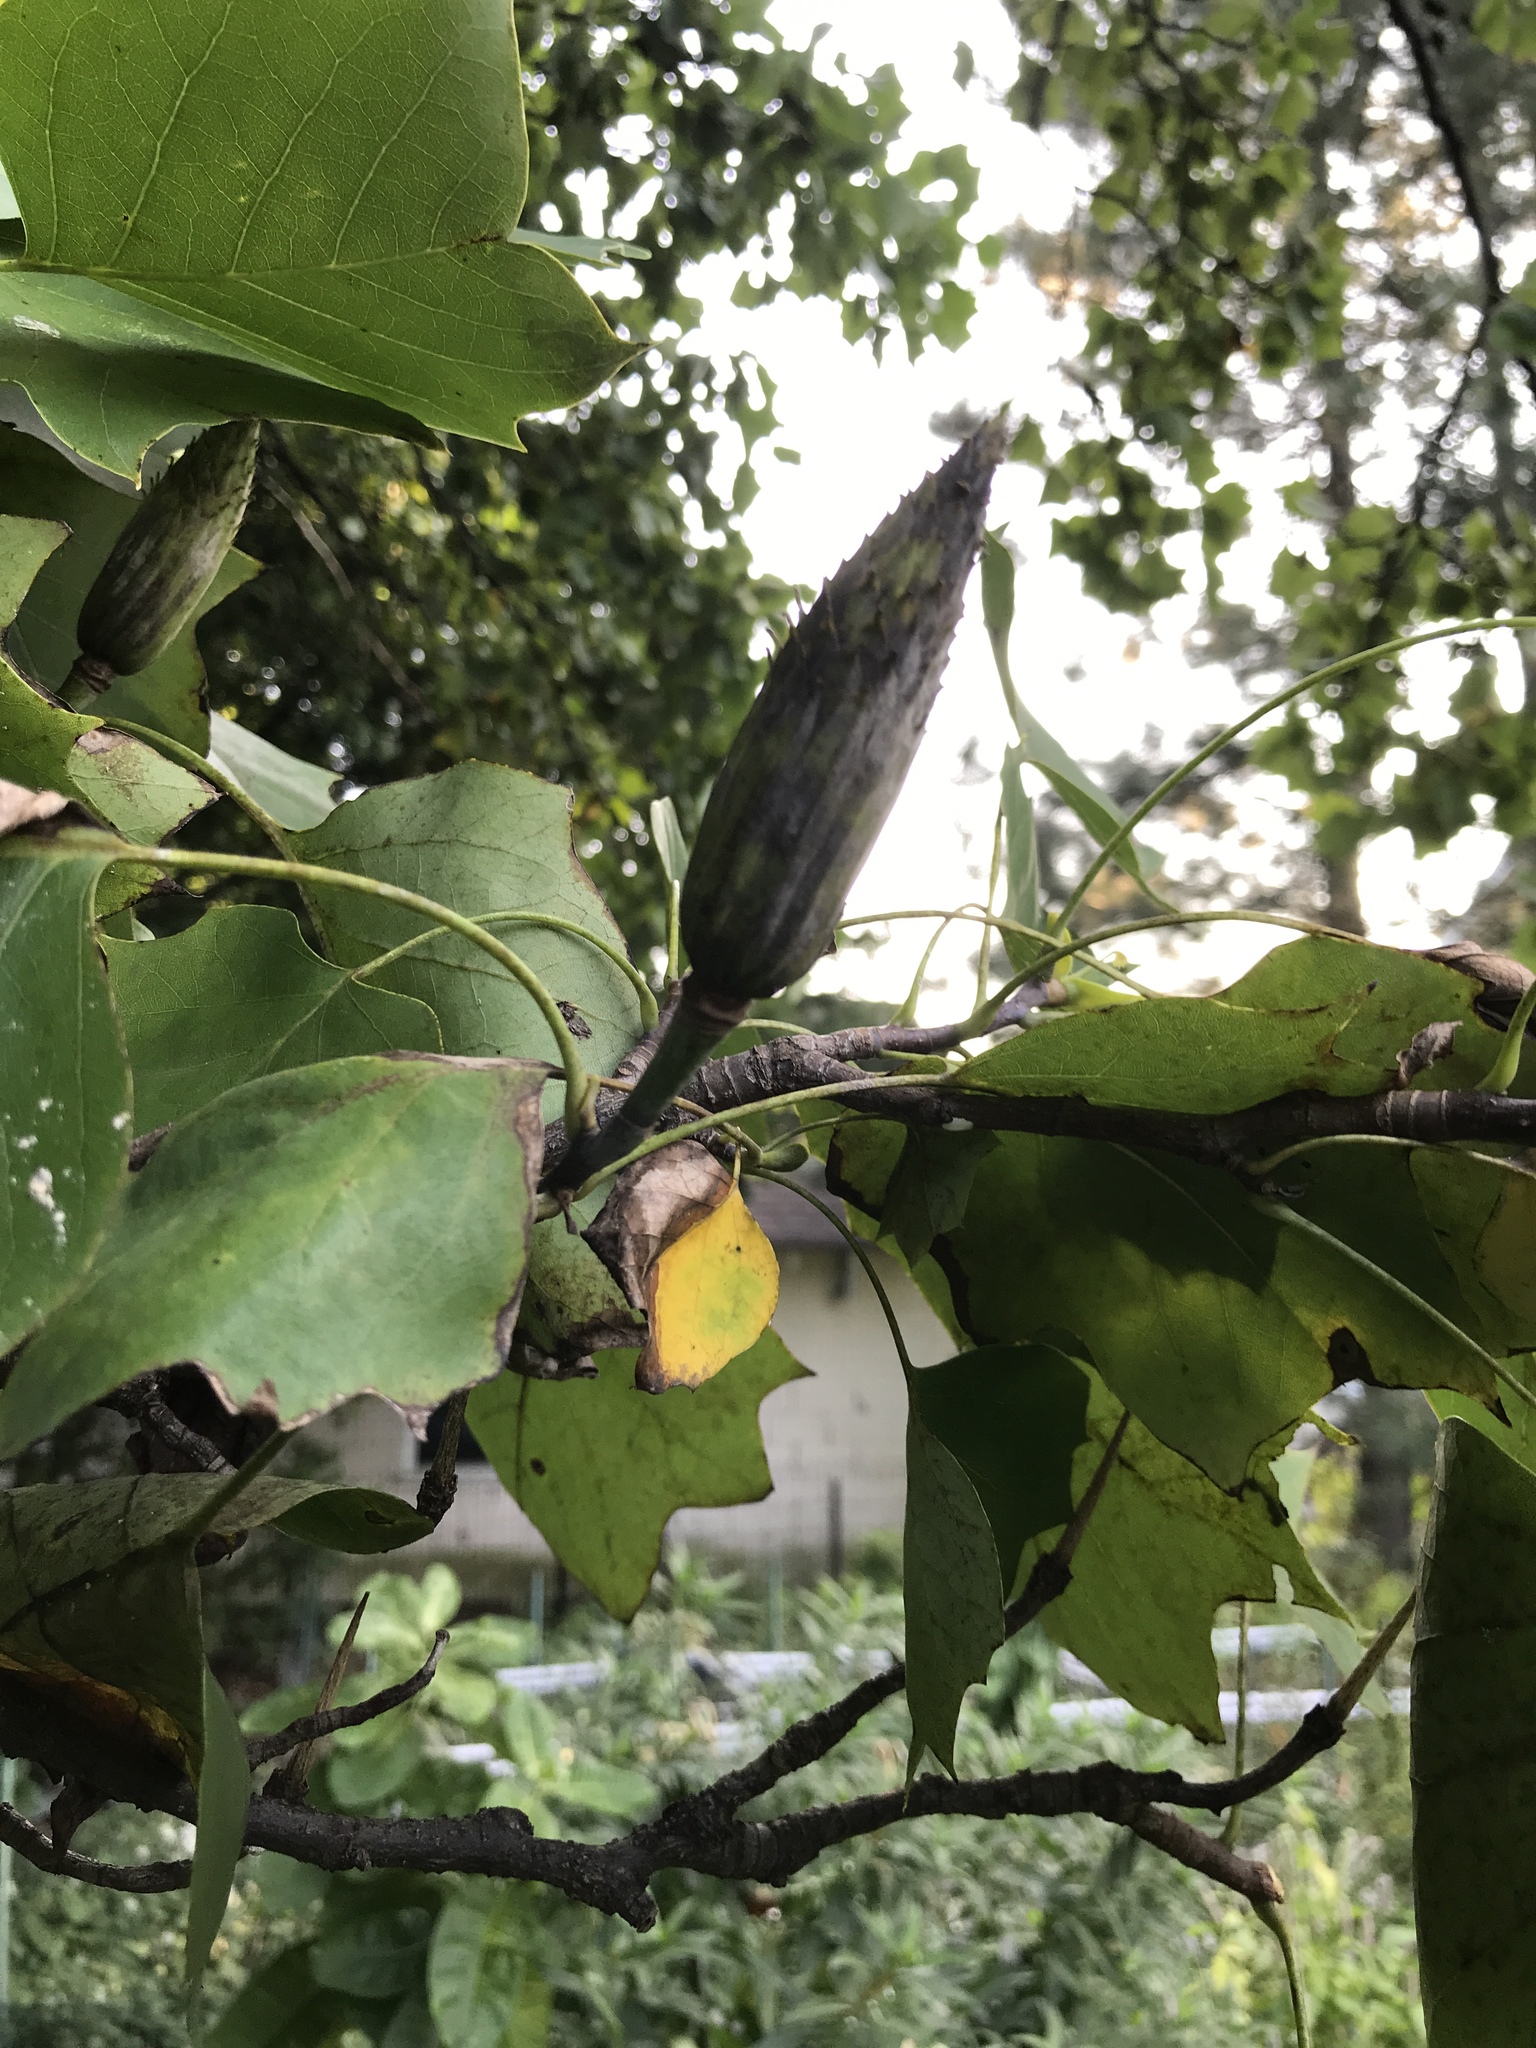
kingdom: Plantae
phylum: Tracheophyta
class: Magnoliopsida
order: Magnoliales
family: Magnoliaceae
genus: Liriodendron
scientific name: Liriodendron tulipifera
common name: Tulip tree
